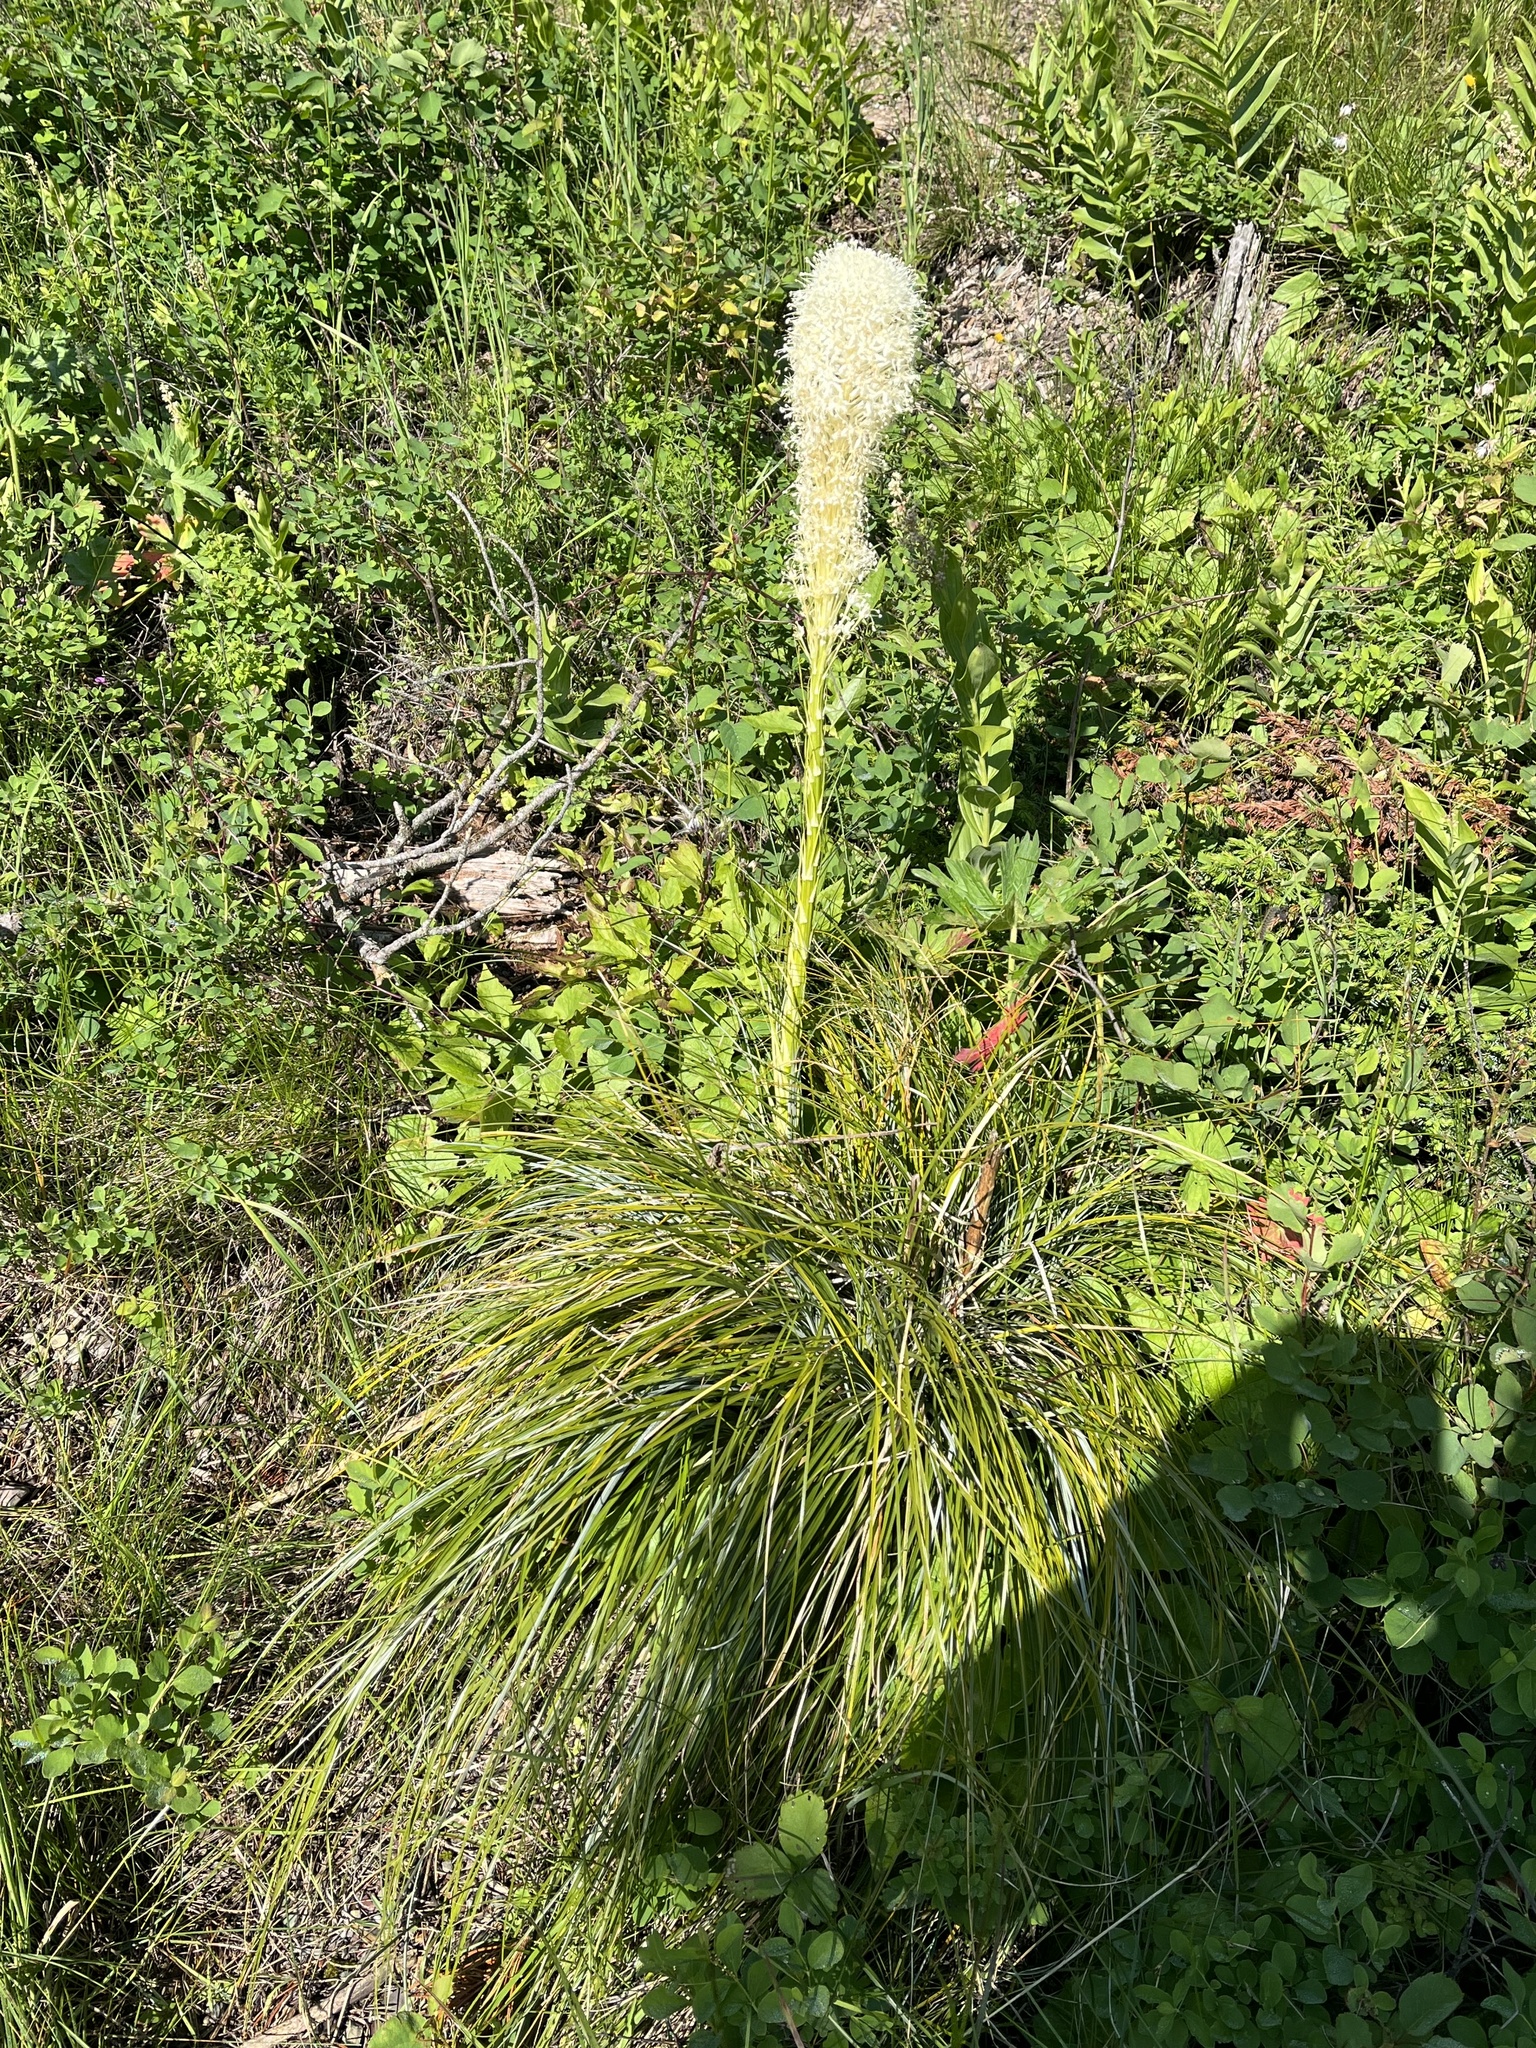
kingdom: Plantae
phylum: Tracheophyta
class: Liliopsida
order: Liliales
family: Melanthiaceae
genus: Xerophyllum
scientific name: Xerophyllum tenax
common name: Bear-grass
